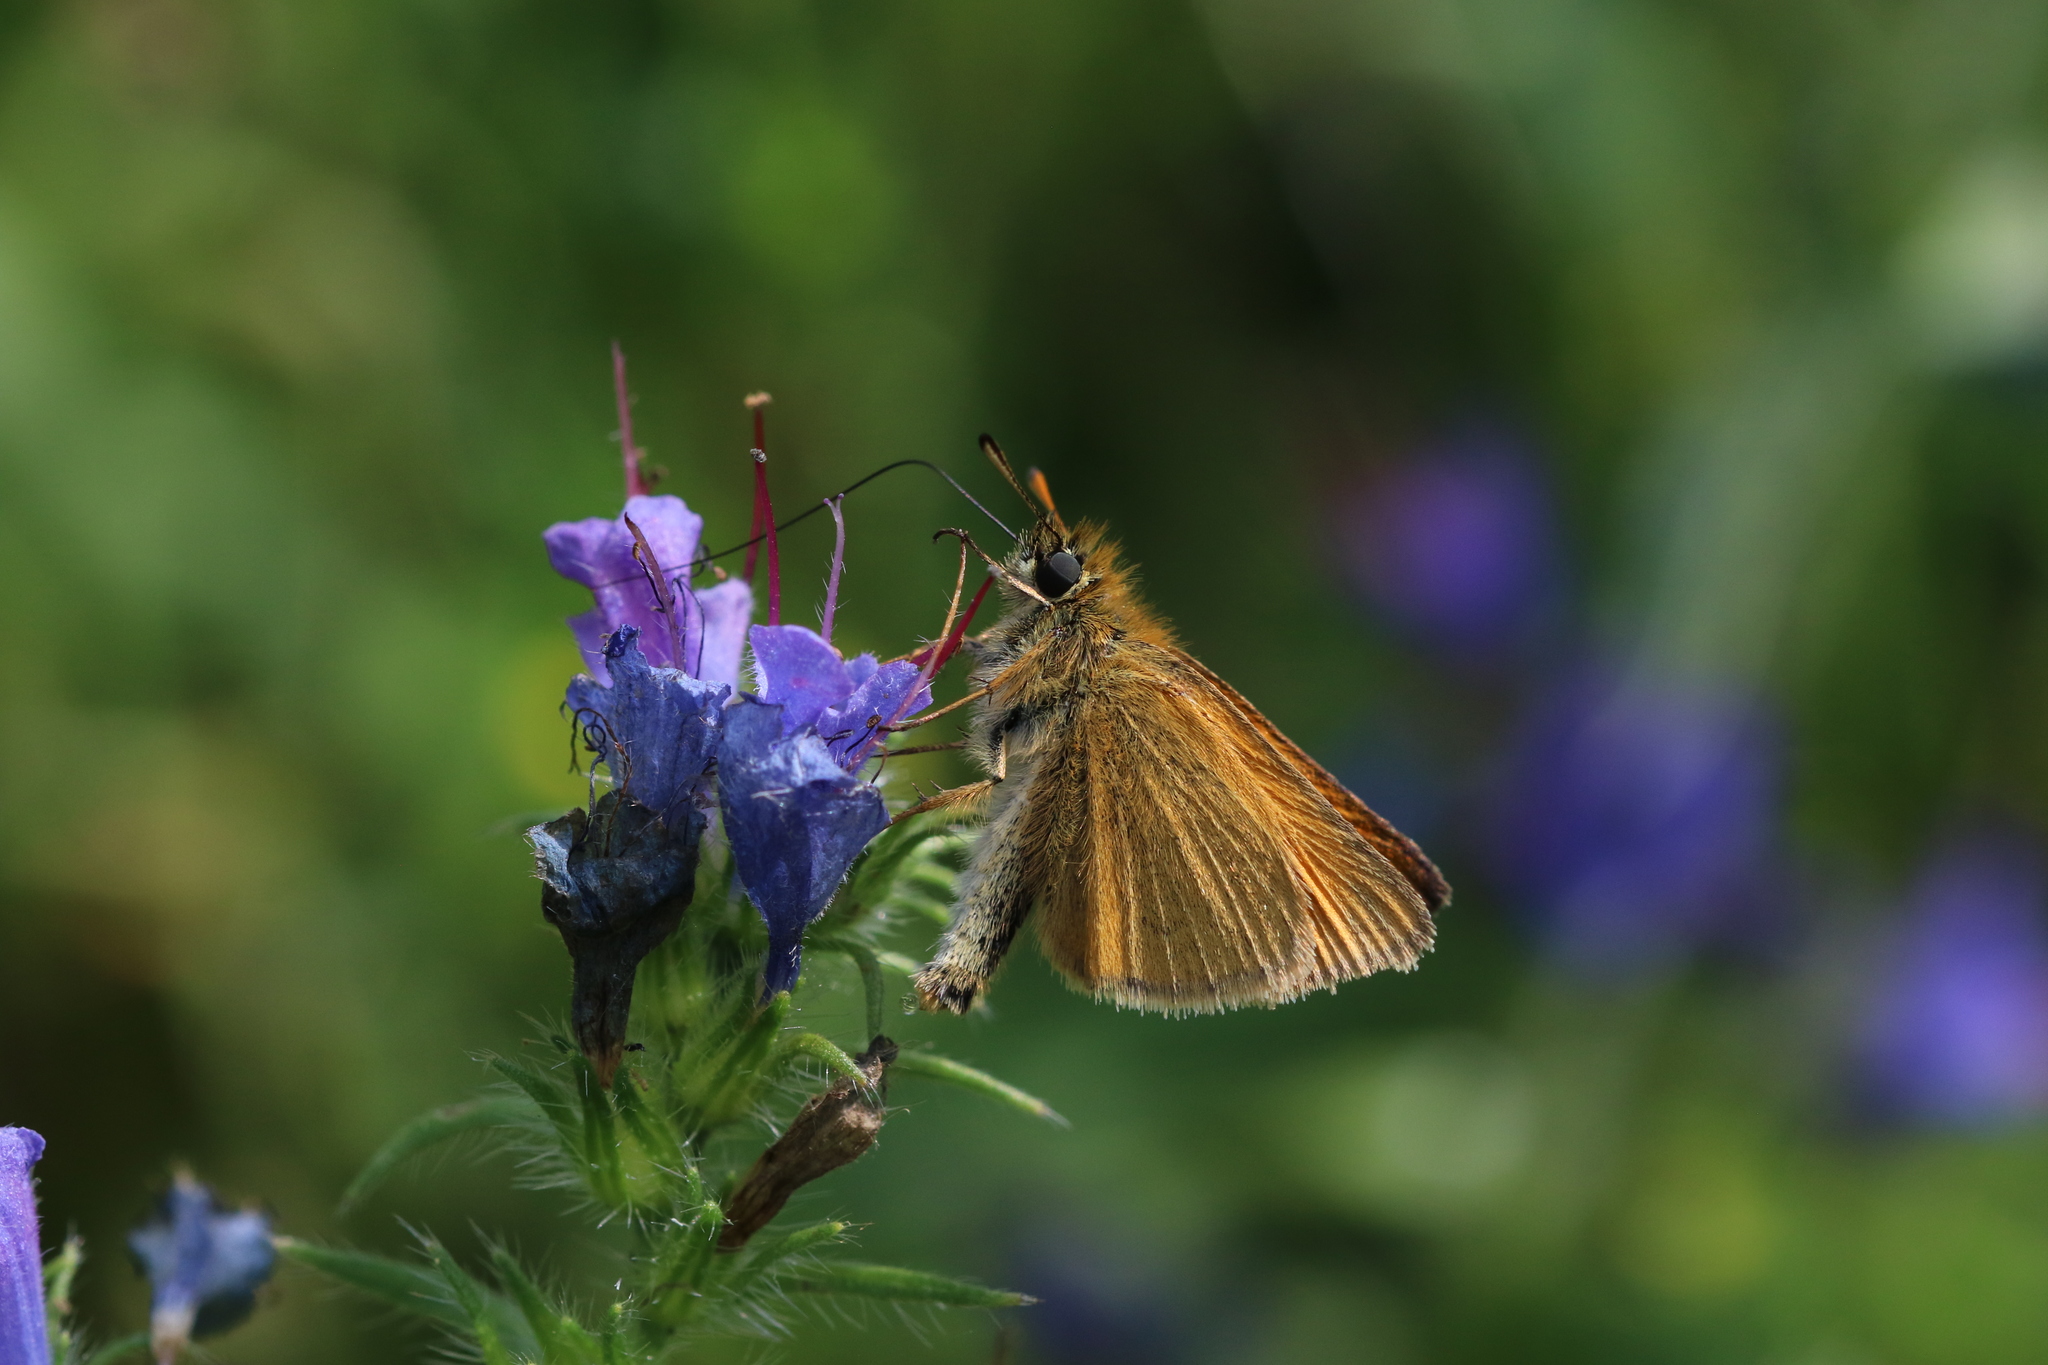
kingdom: Animalia
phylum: Arthropoda
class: Insecta
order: Lepidoptera
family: Hesperiidae
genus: Thymelicus
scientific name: Thymelicus lineola
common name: Essex skipper
